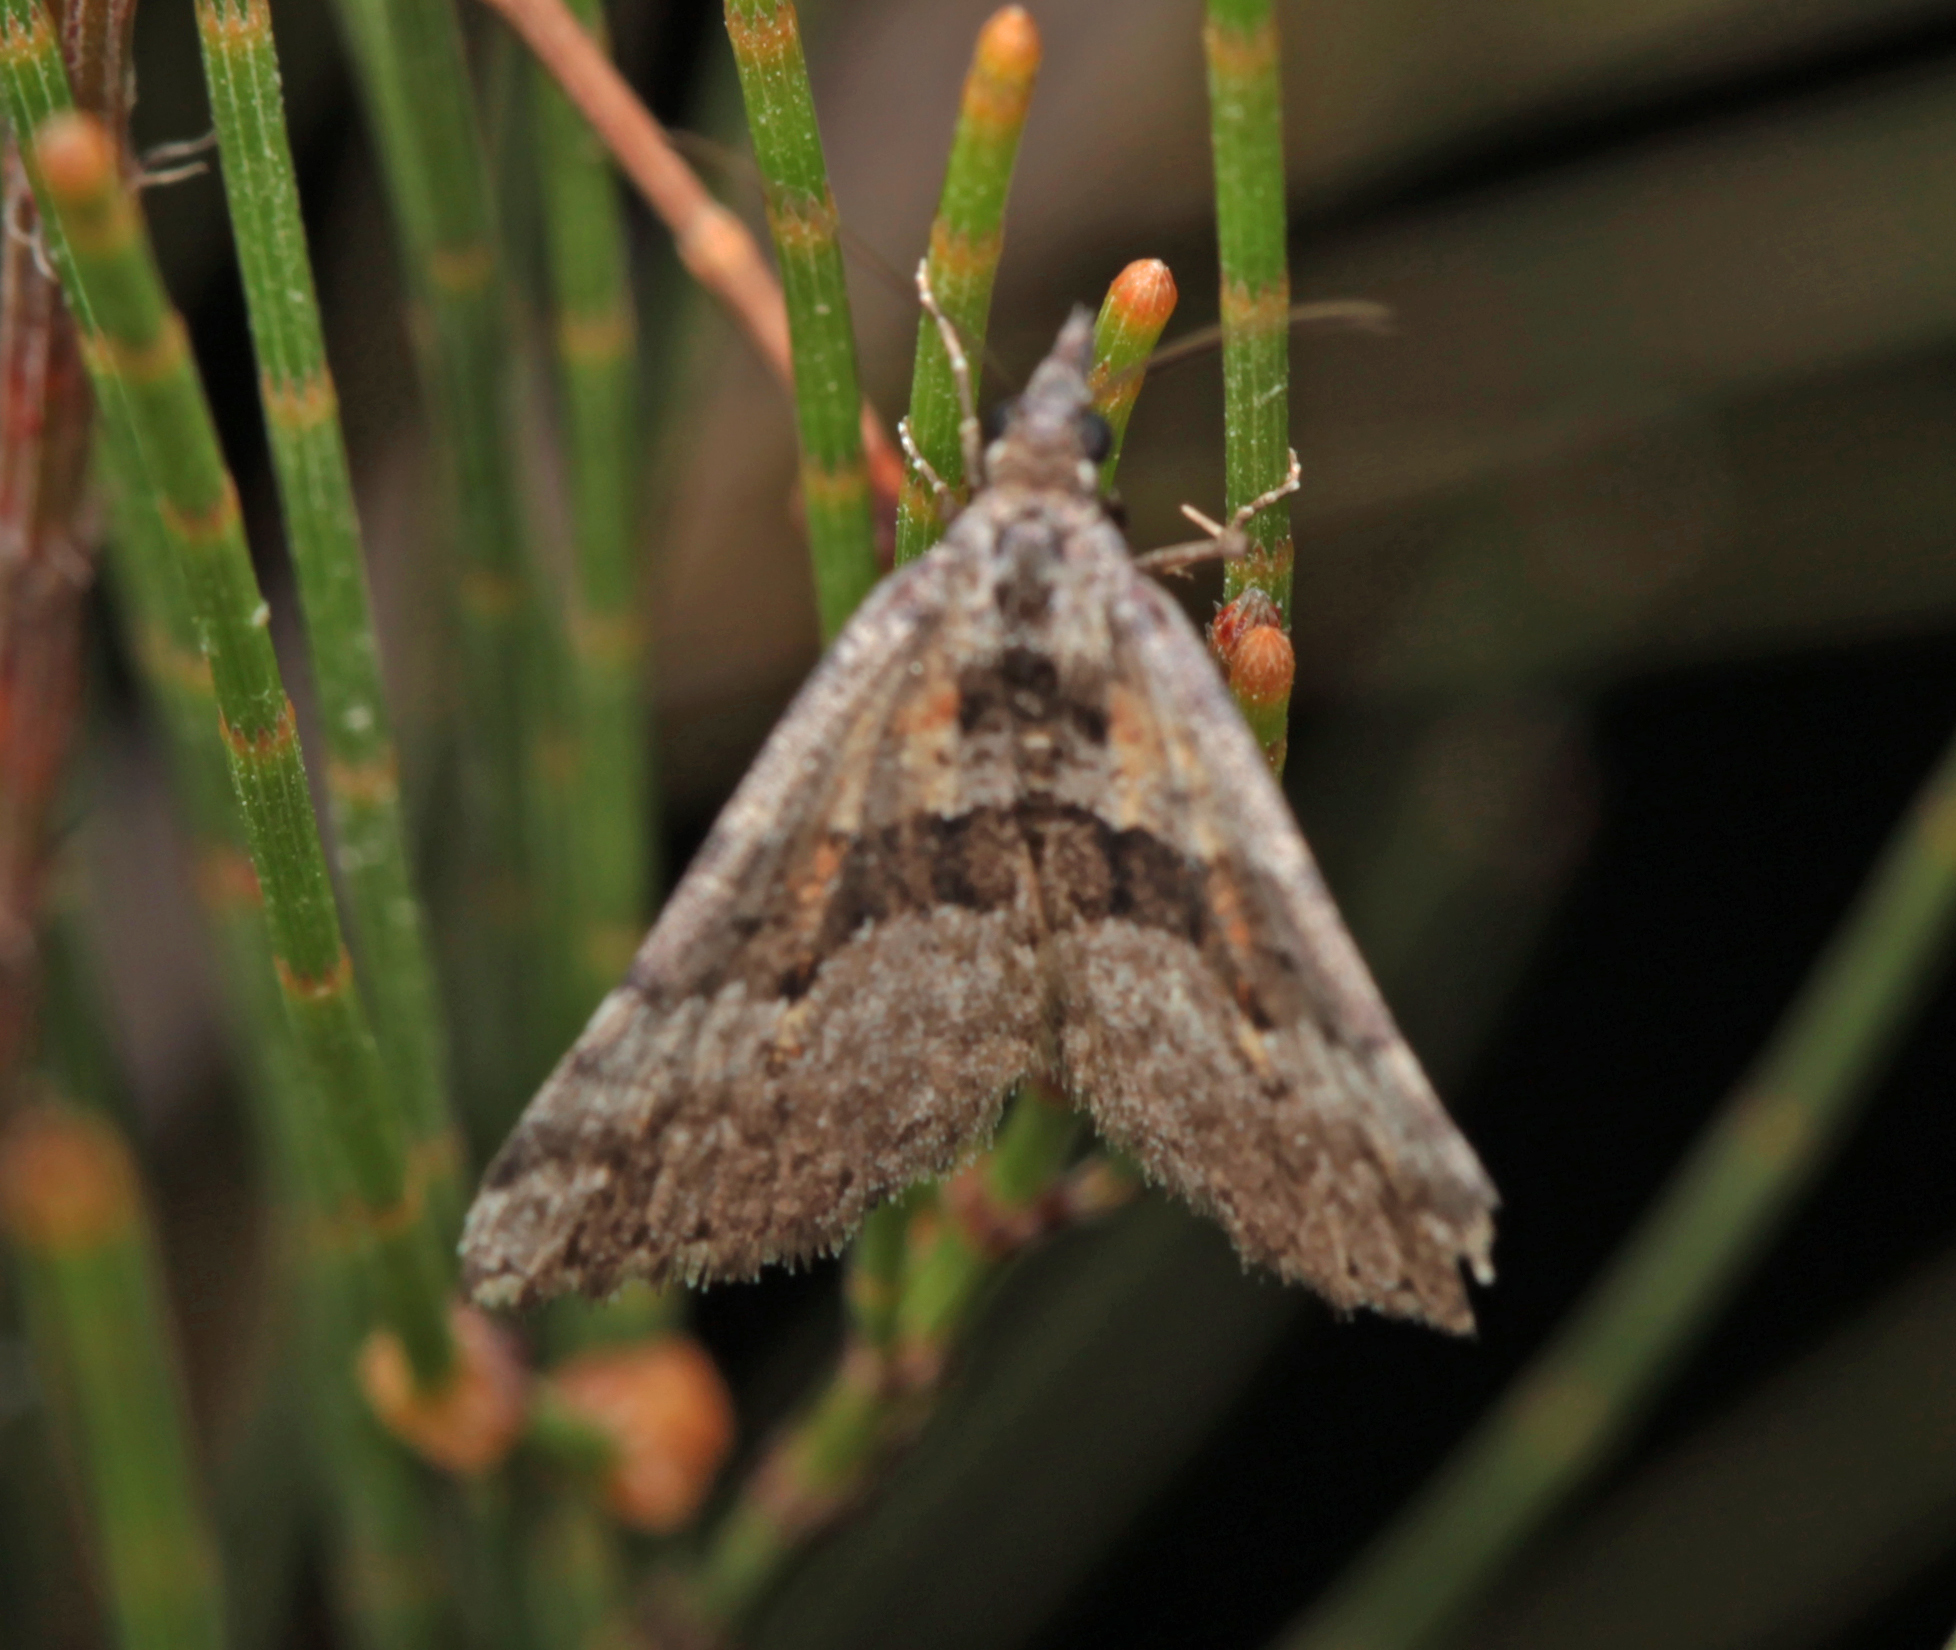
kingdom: Animalia
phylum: Arthropoda
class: Insecta
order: Lepidoptera
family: Geometridae
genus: Dichromodes
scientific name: Dichromodes triparata
